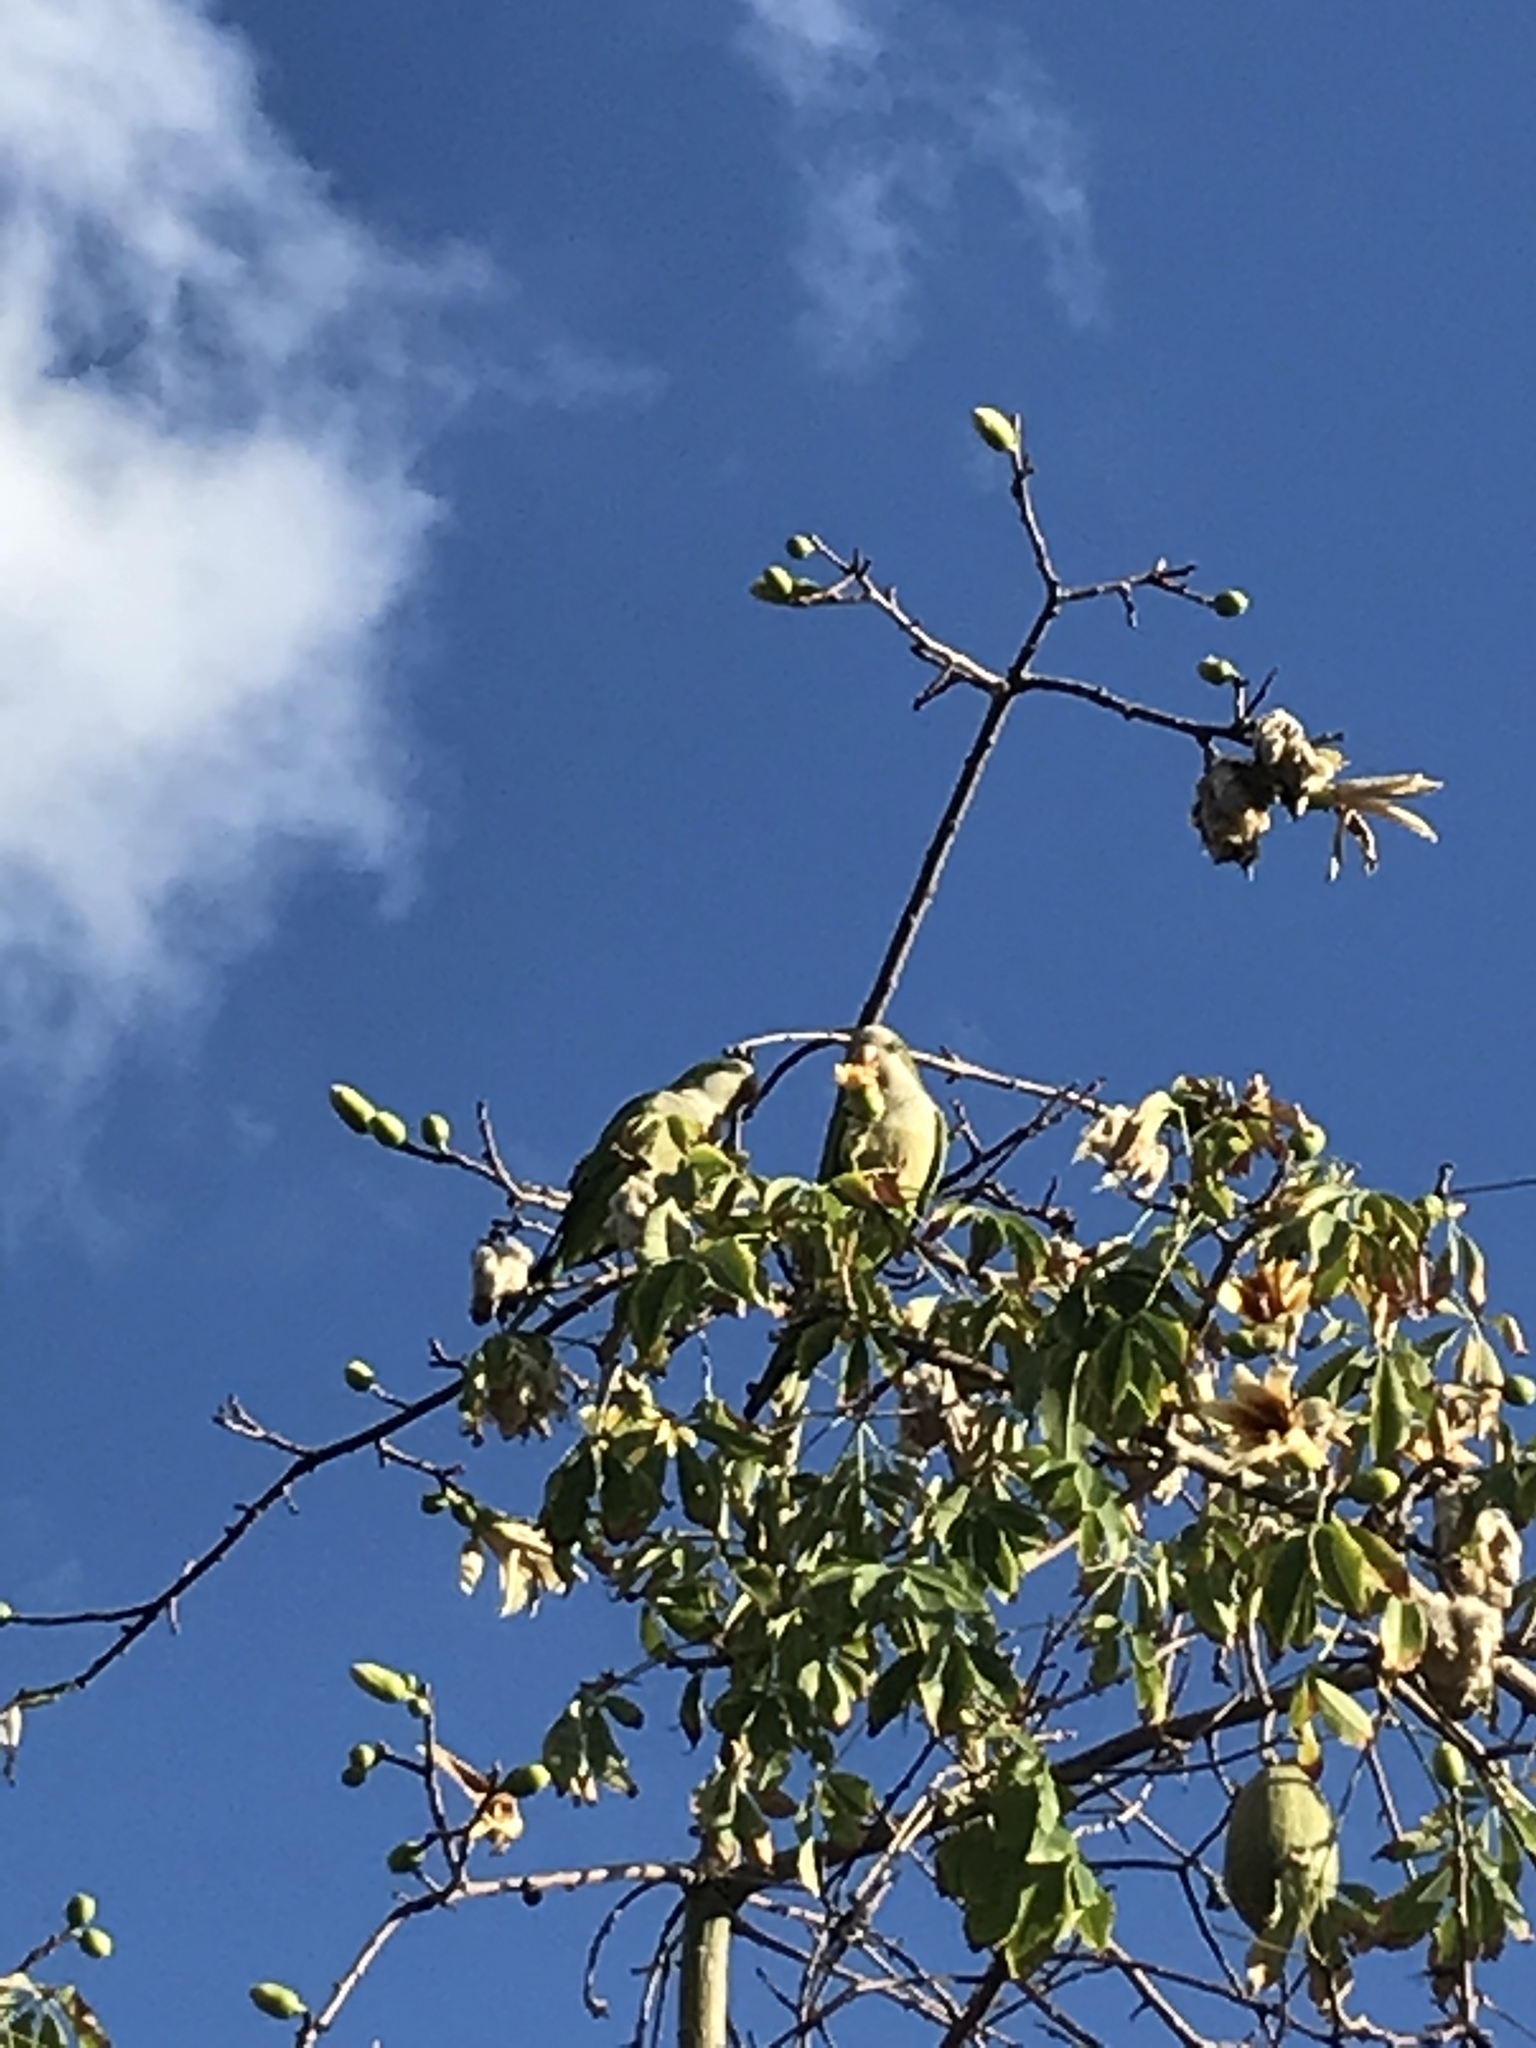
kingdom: Animalia
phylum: Chordata
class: Aves
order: Psittaciformes
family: Psittacidae
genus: Myiopsitta
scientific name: Myiopsitta monachus
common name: Monk parakeet
